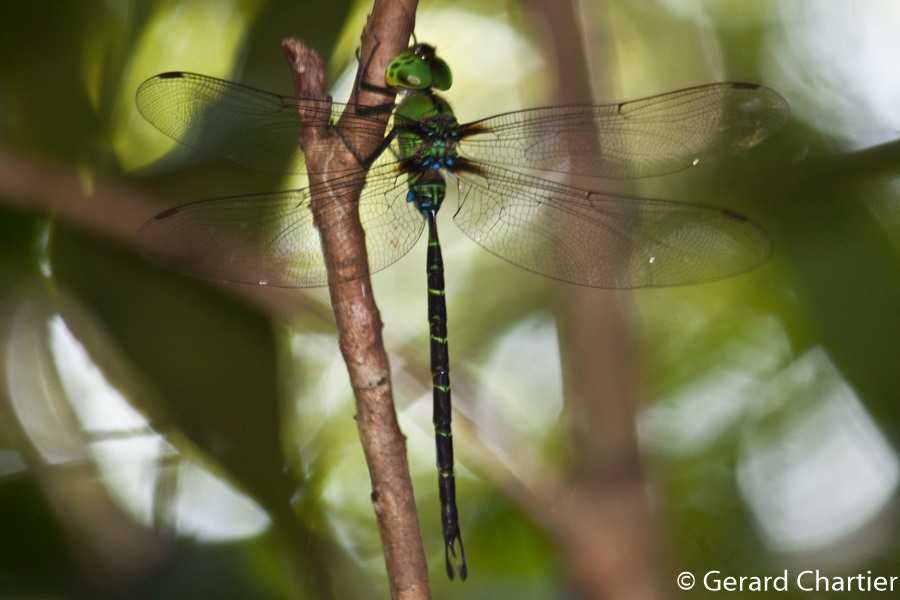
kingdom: Animalia
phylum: Arthropoda
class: Insecta
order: Odonata
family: Aeshnidae
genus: Gynacantha
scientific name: Gynacantha basiguttata
